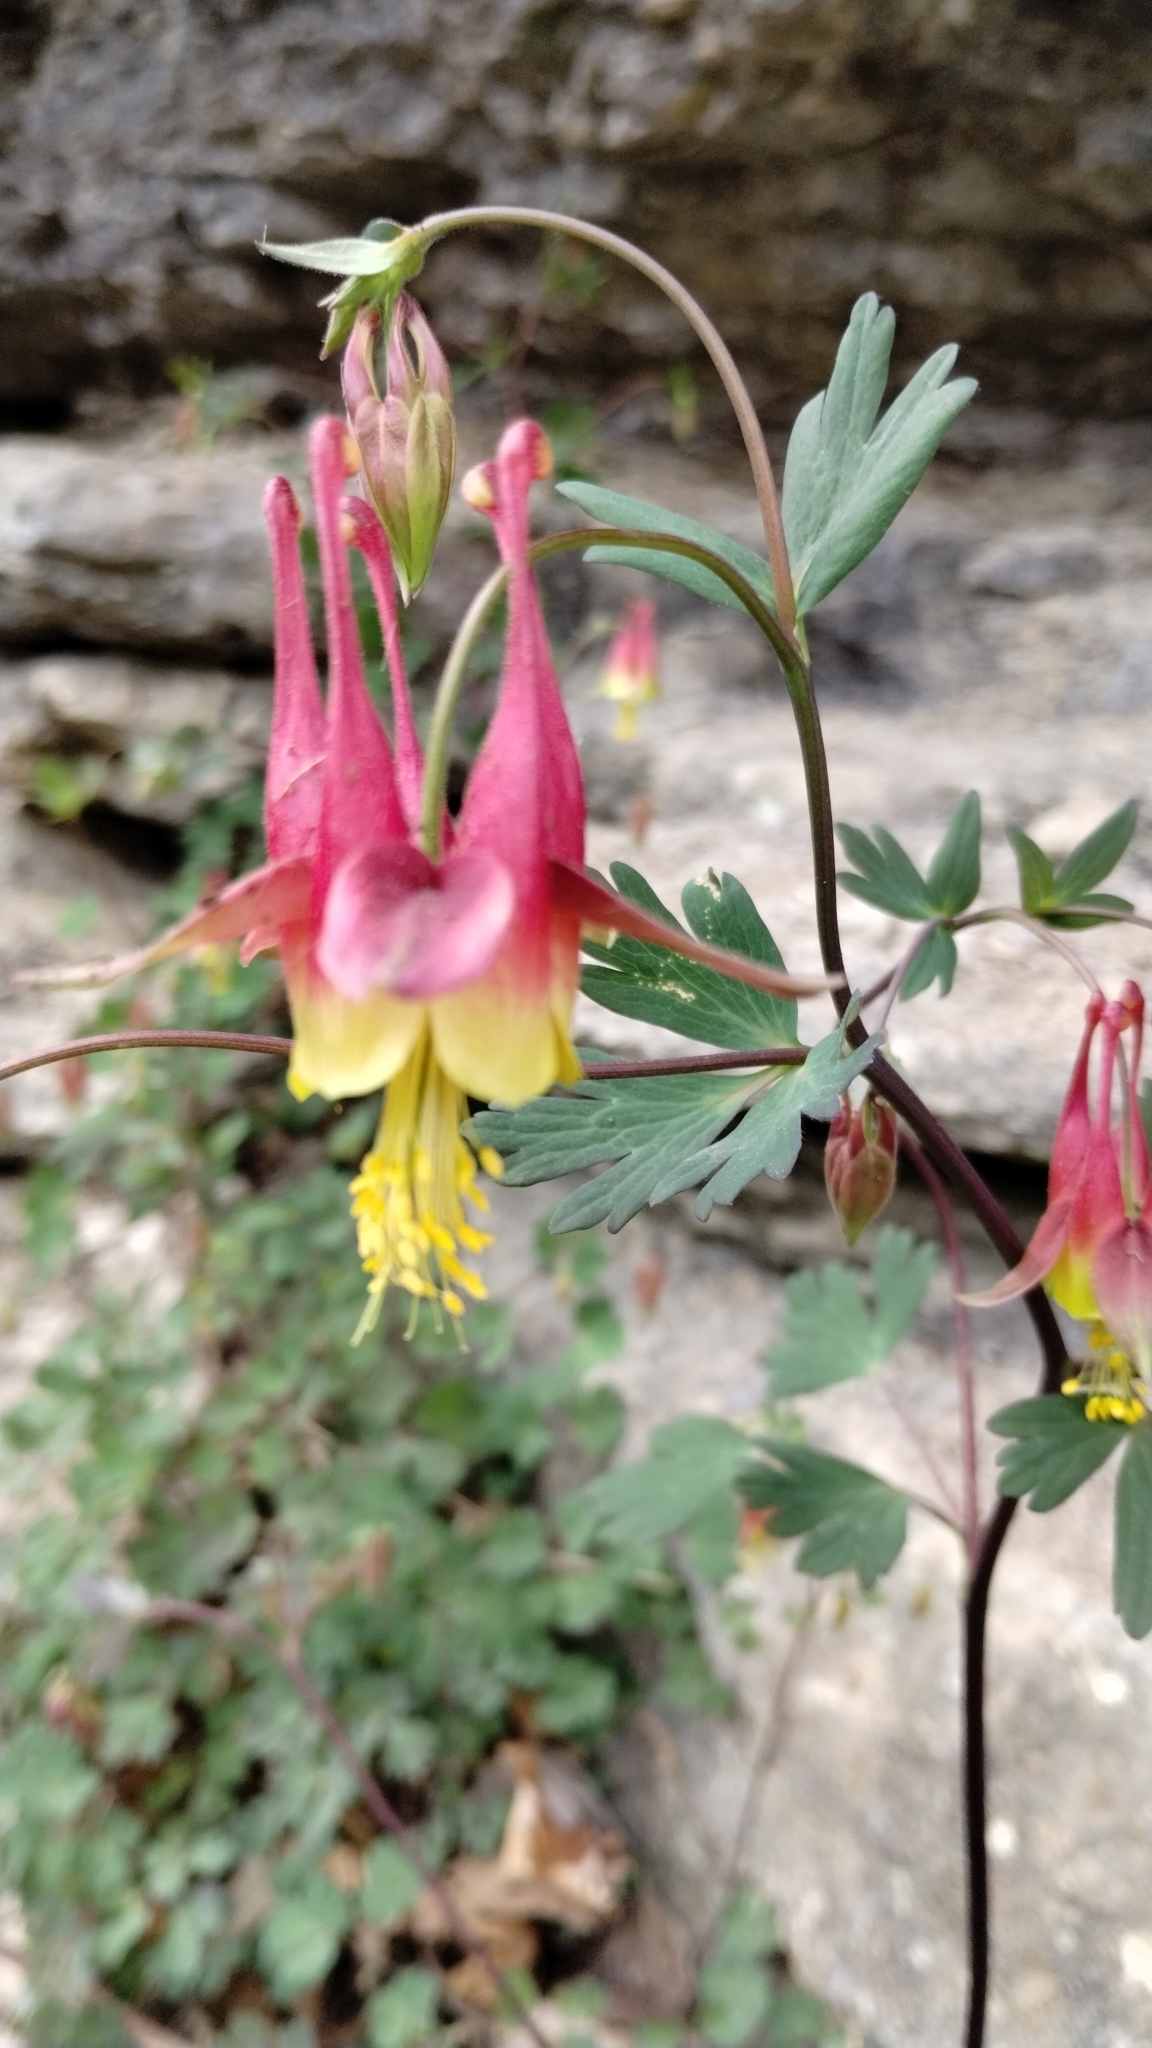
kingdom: Plantae
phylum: Tracheophyta
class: Magnoliopsida
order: Ranunculales
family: Ranunculaceae
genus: Aquilegia
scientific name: Aquilegia canadensis
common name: American columbine
